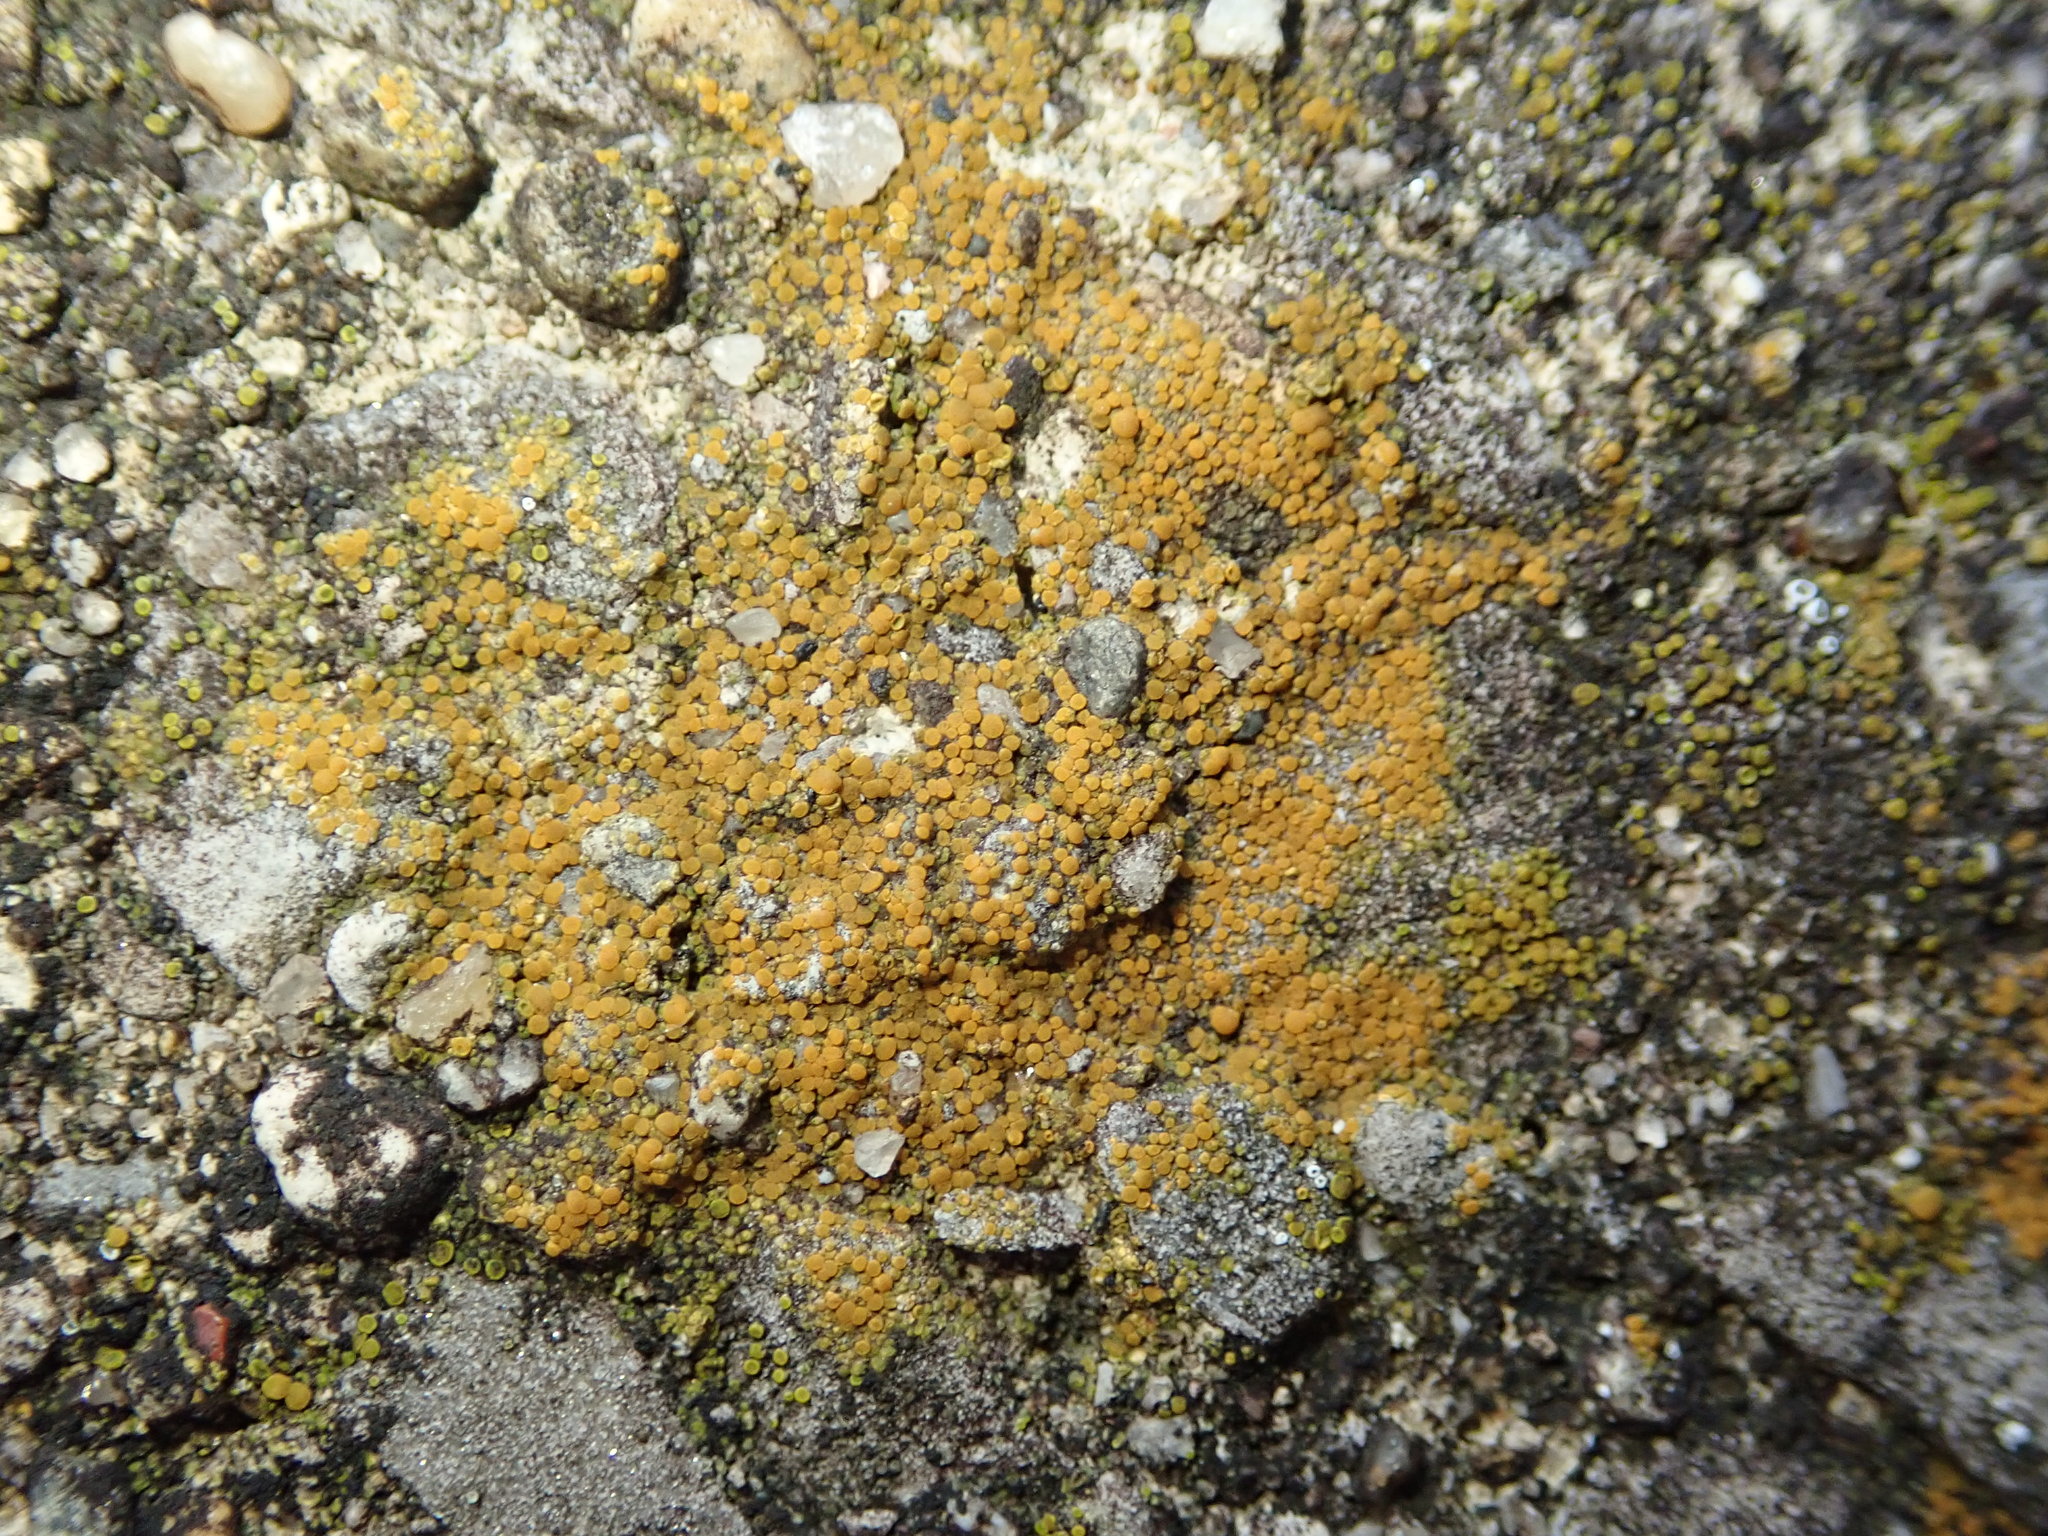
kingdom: Fungi
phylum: Ascomycota
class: Lecanoromycetes
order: Teloschistales
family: Teloschistaceae
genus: Xanthocarpia
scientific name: Xanthocarpia feracissima
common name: Sidewalk firedot
